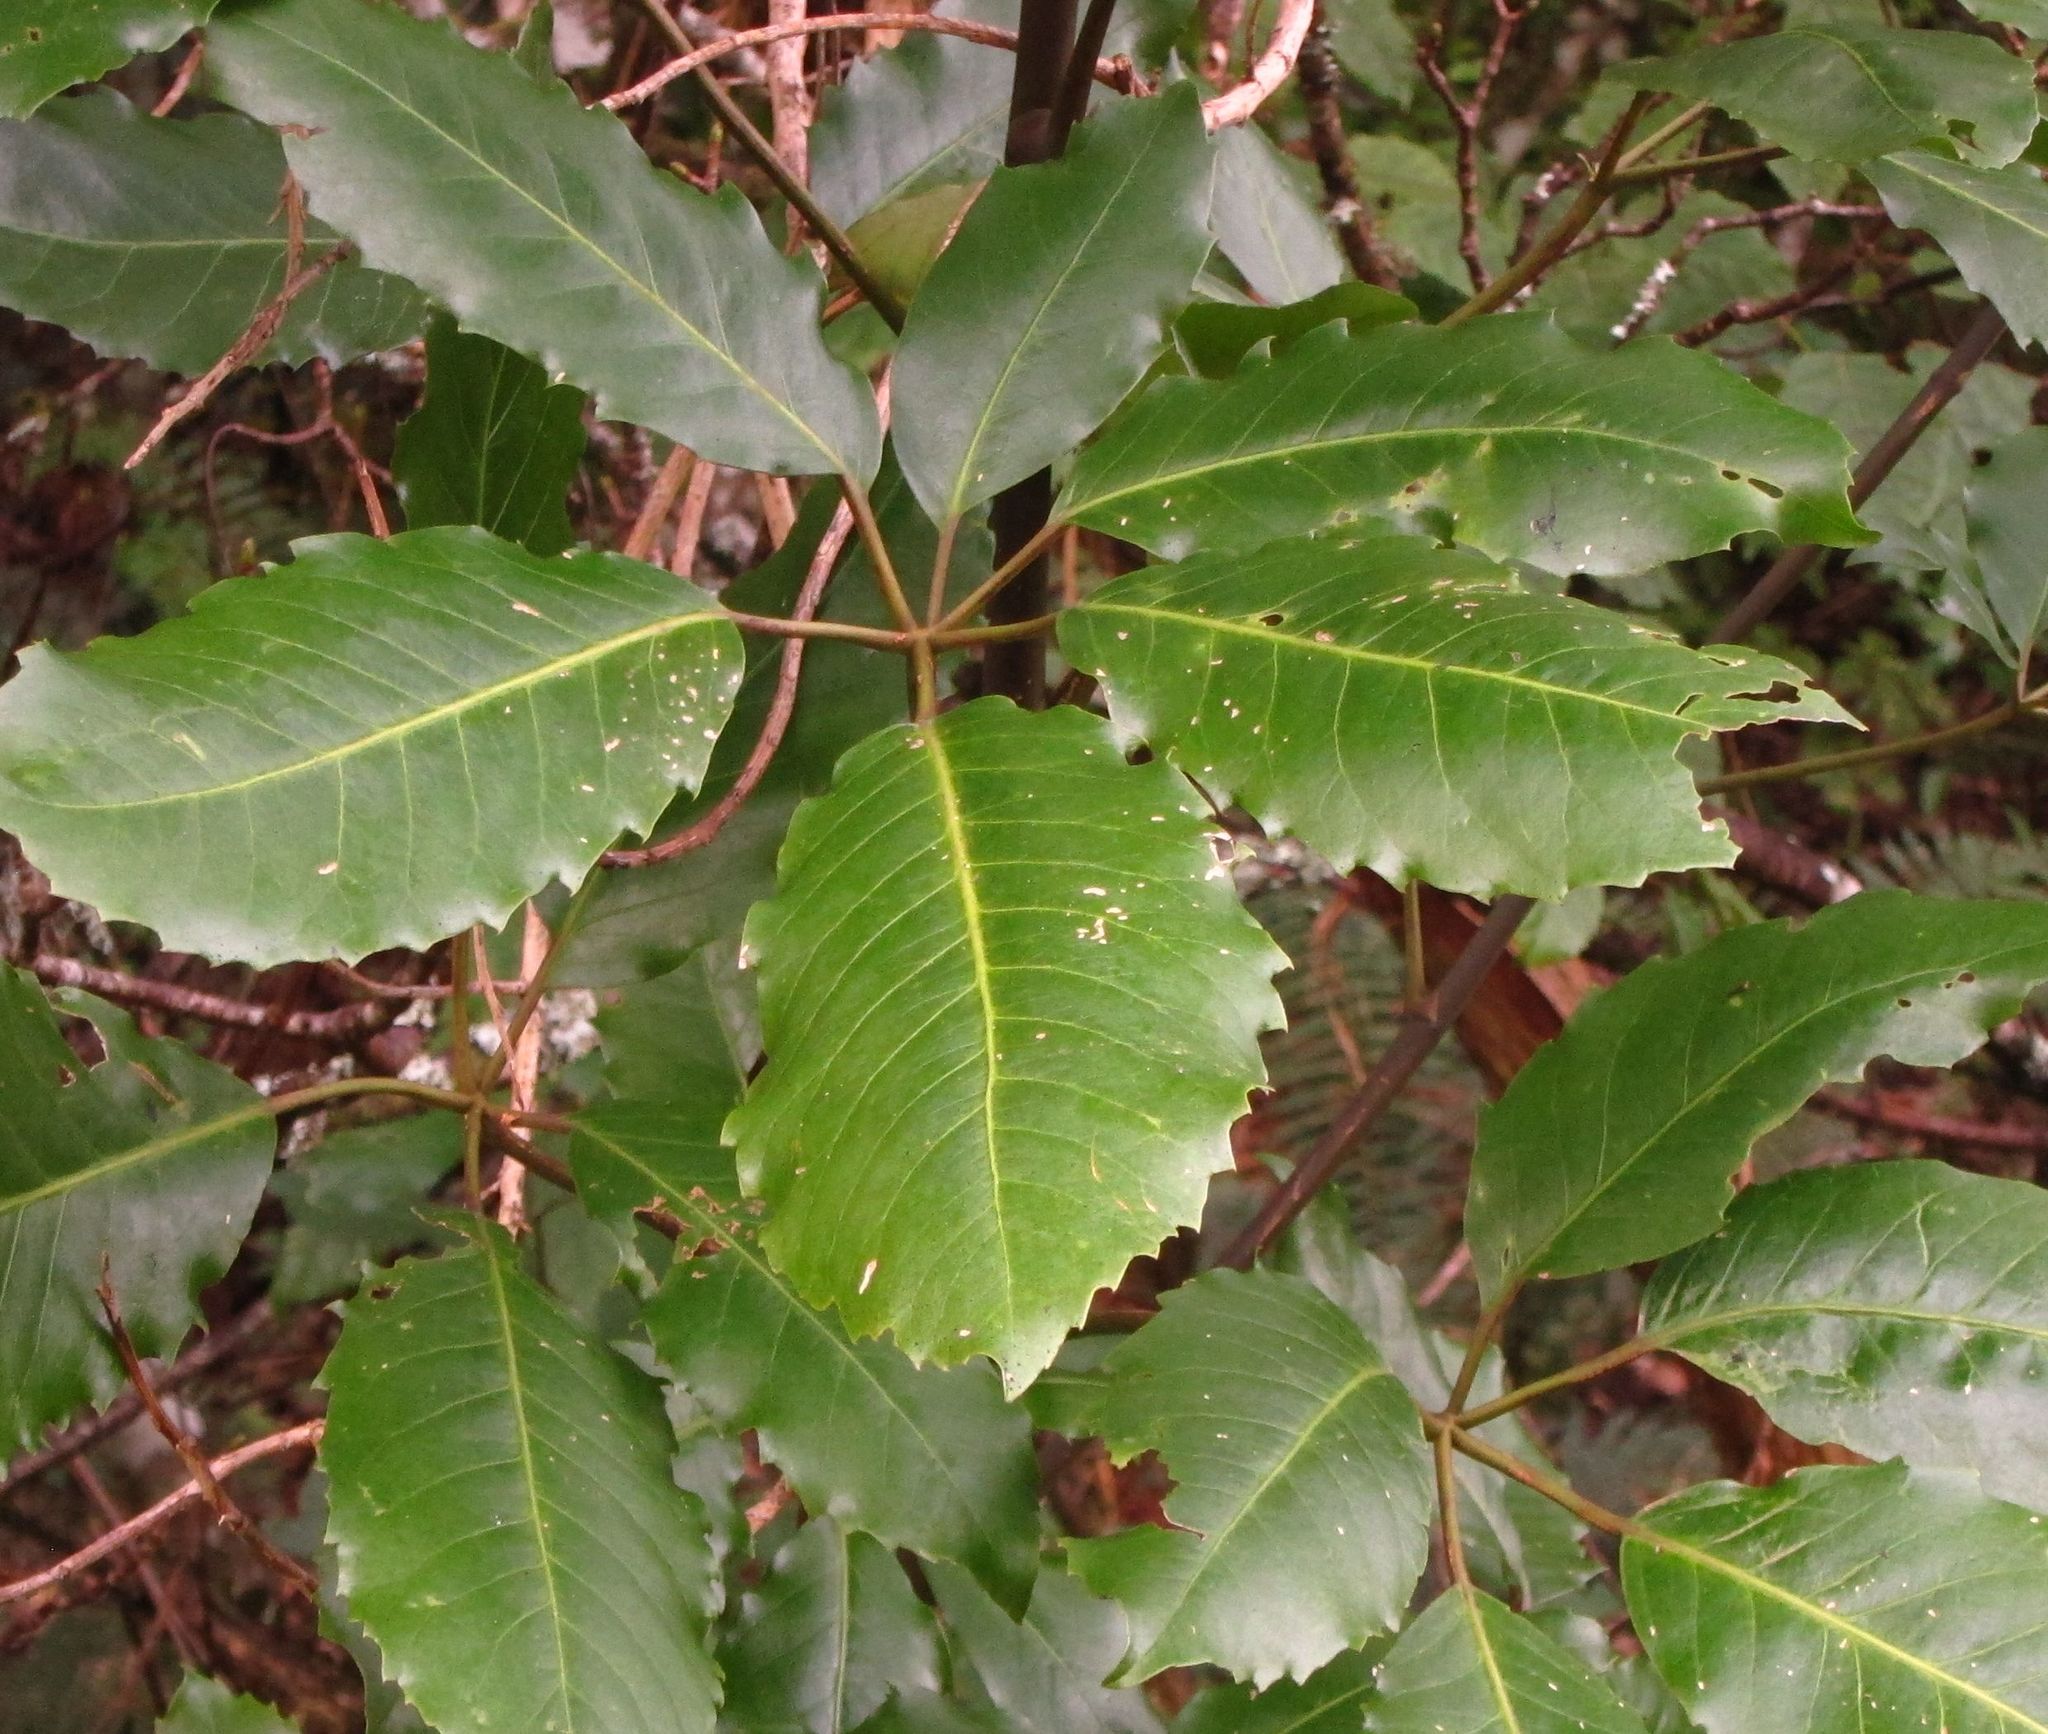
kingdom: Plantae
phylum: Tracheophyta
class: Magnoliopsida
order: Apiales
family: Araliaceae
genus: Neopanax
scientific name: Neopanax arboreus
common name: Five-fingers
